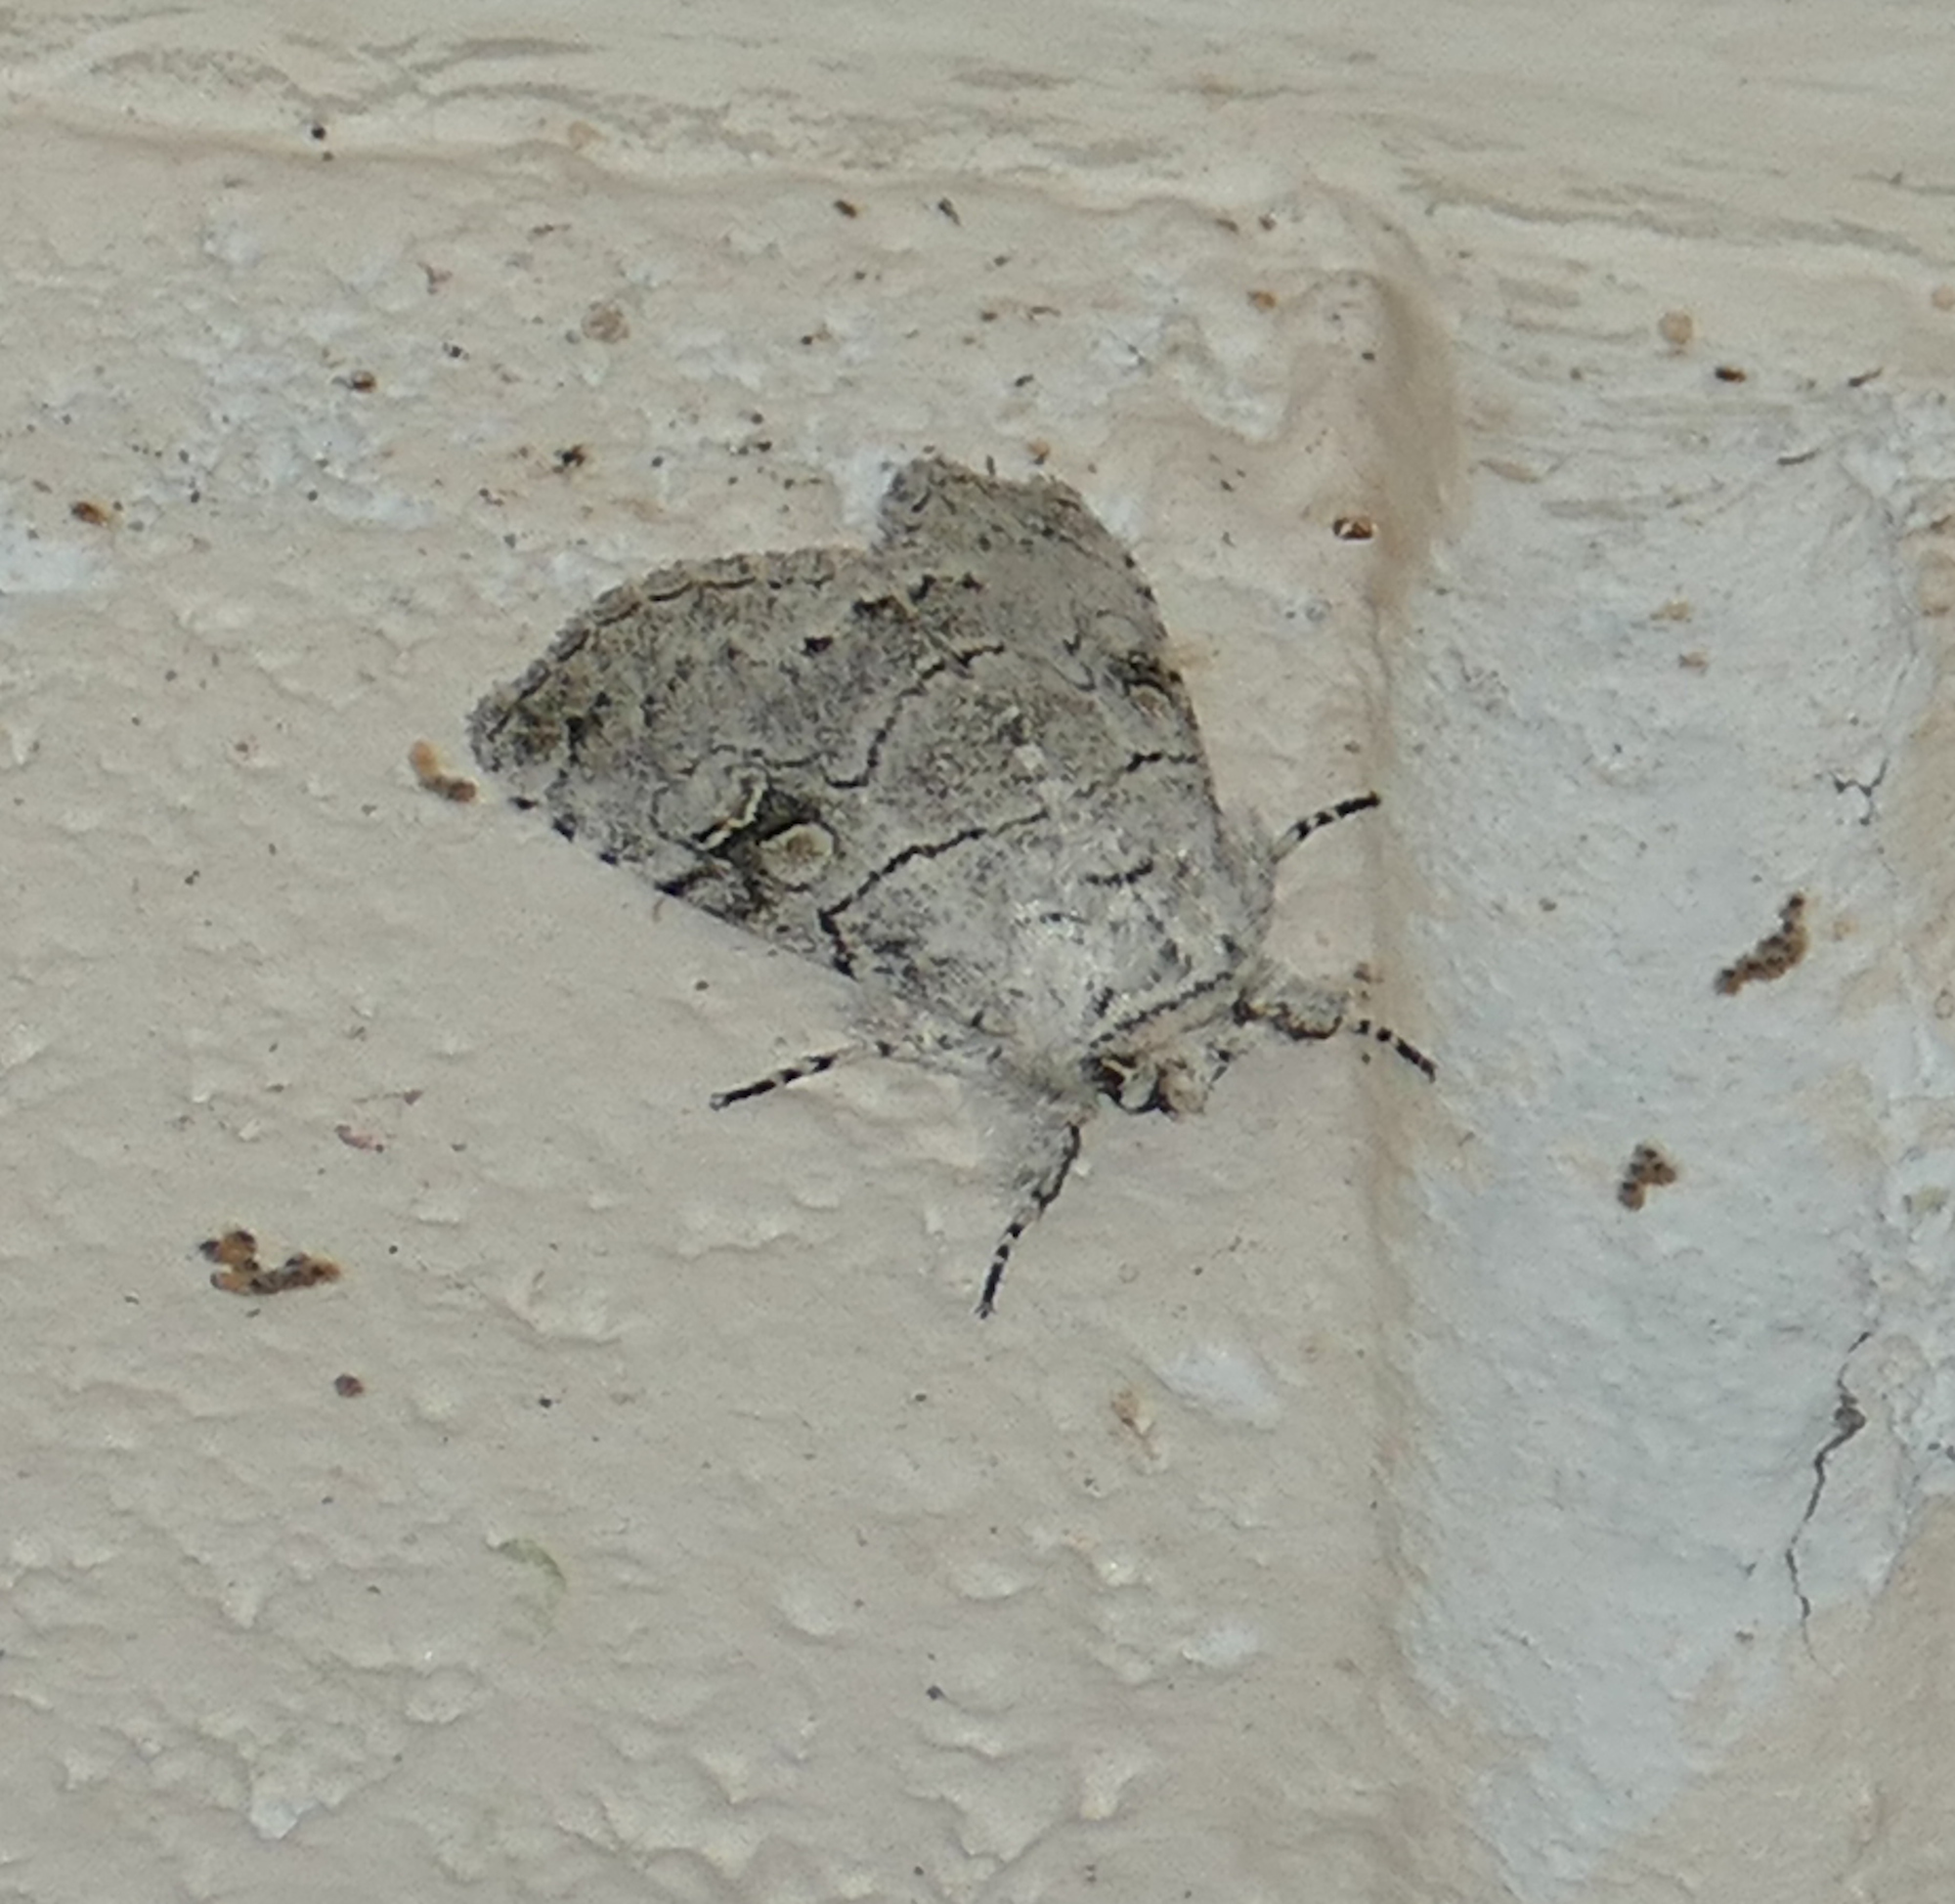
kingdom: Animalia
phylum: Arthropoda
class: Insecta
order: Lepidoptera
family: Noctuidae
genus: Charadra
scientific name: Charadra dispulsa
